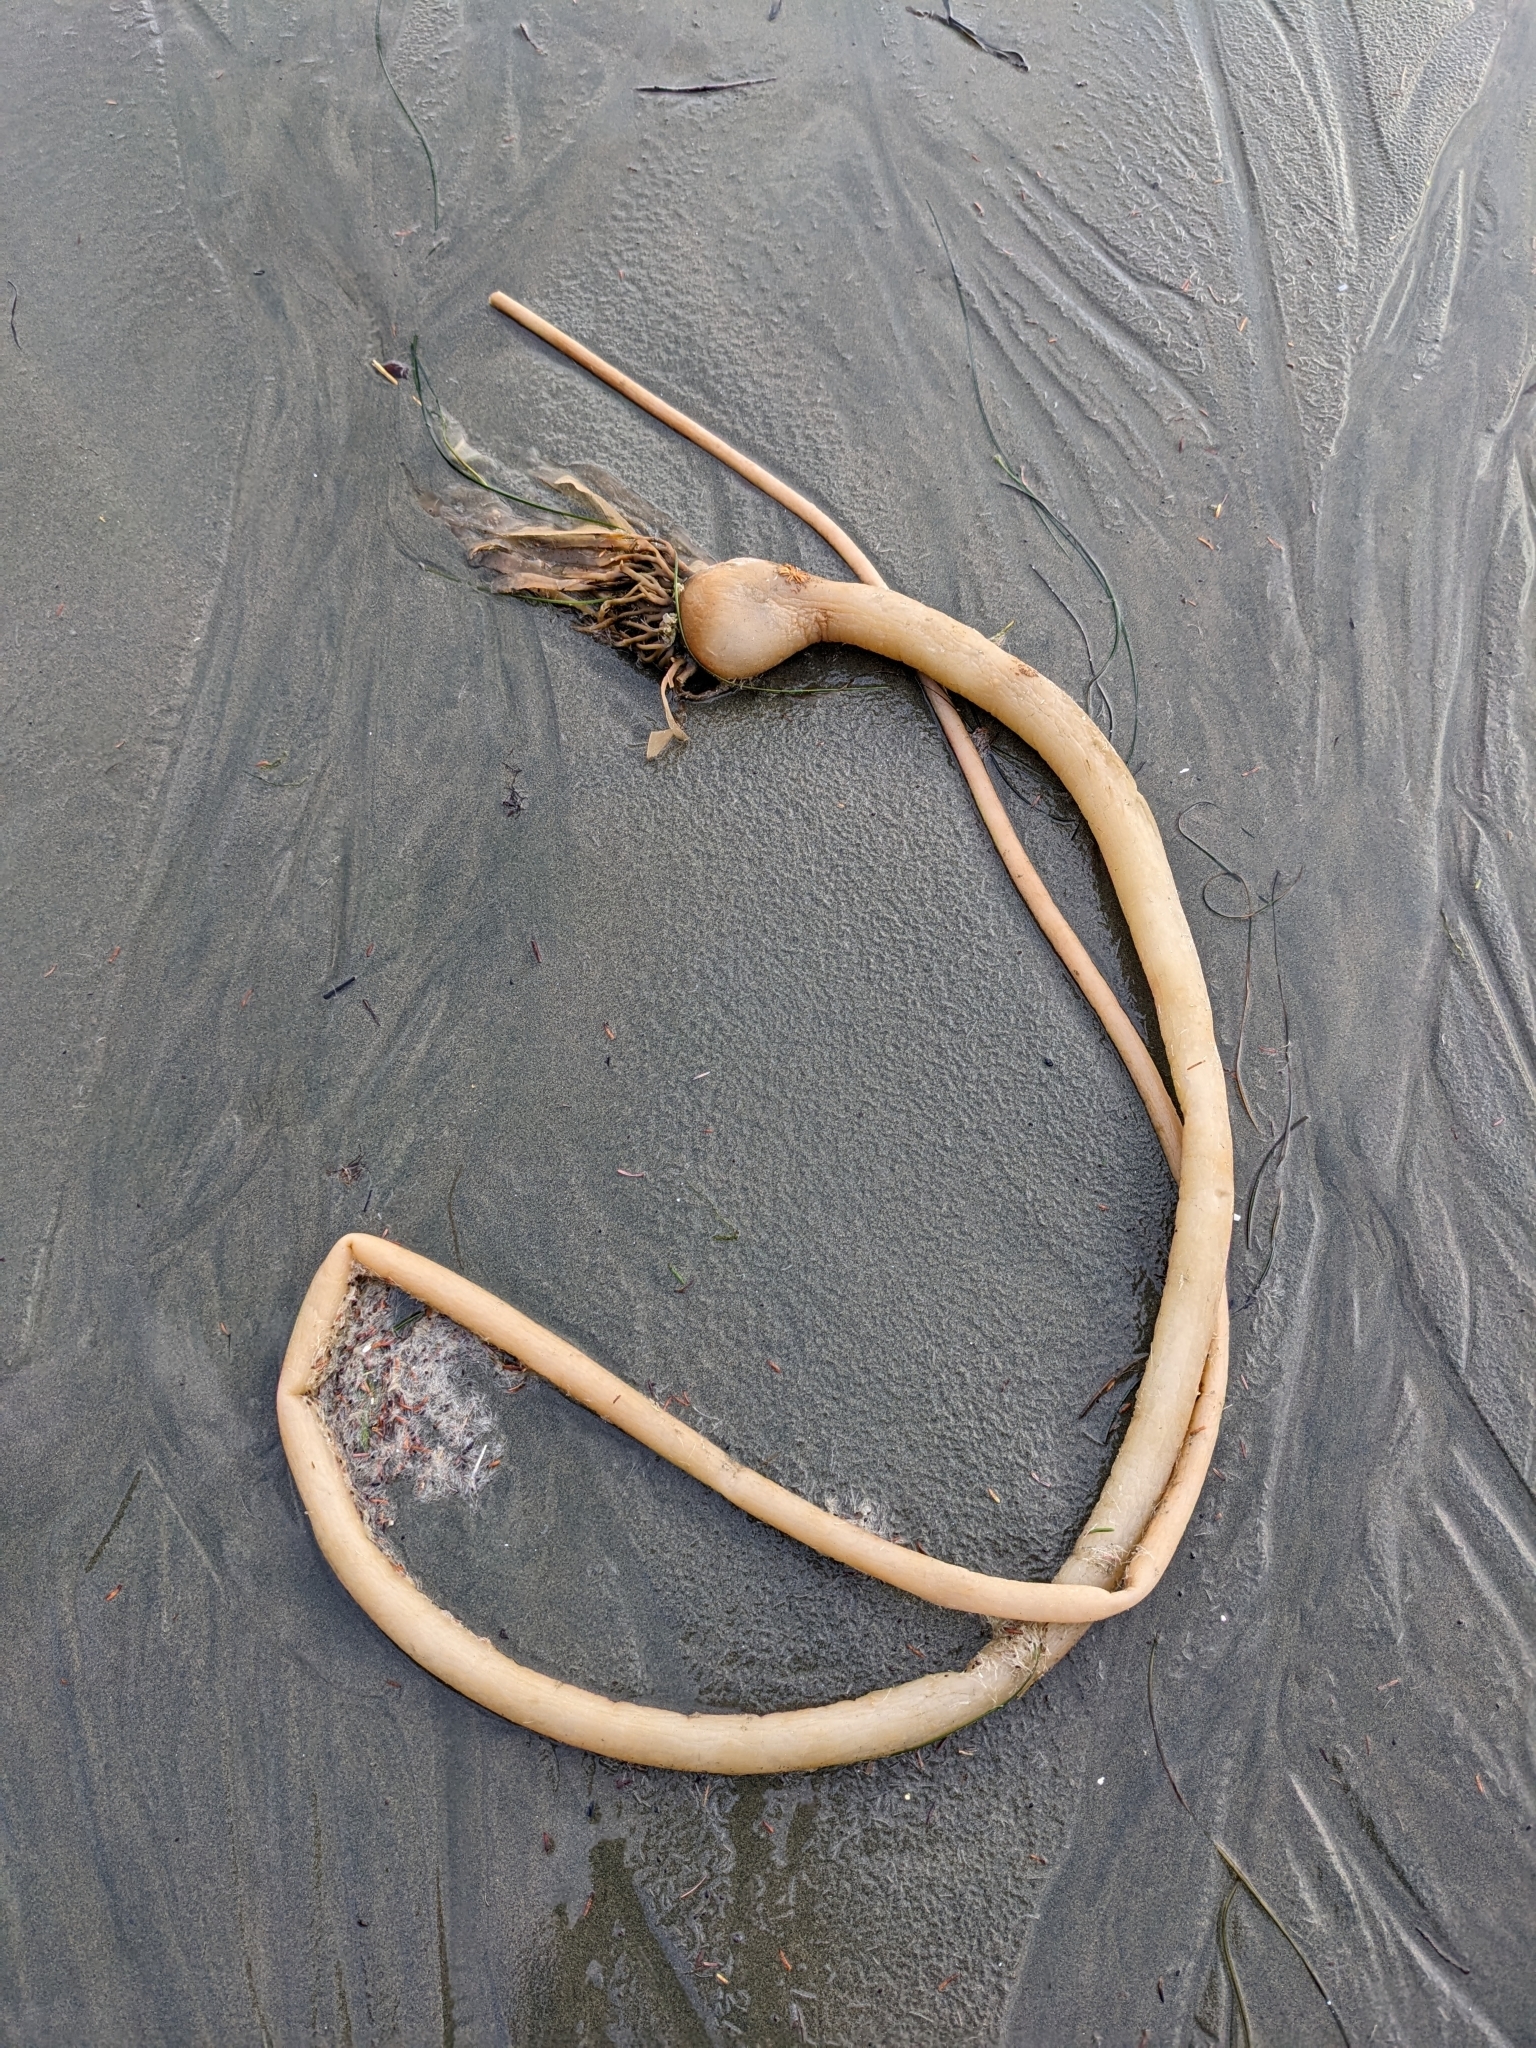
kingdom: Chromista
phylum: Ochrophyta
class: Phaeophyceae
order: Laminariales
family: Laminariaceae
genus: Nereocystis
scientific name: Nereocystis luetkeana
